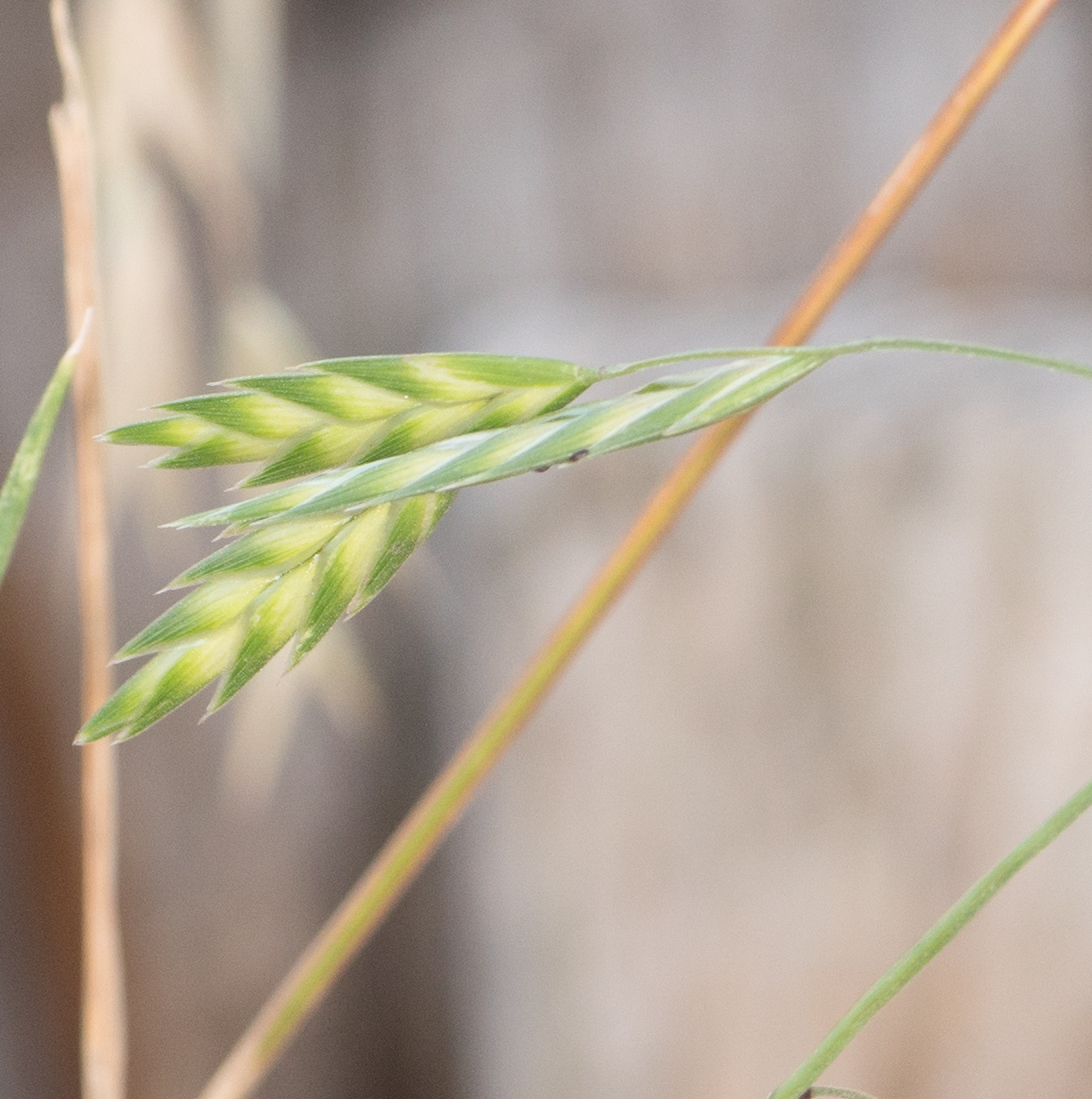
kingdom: Plantae
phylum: Tracheophyta
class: Liliopsida
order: Poales
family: Poaceae
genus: Bromus
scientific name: Bromus catharticus
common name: Rescuegrass
